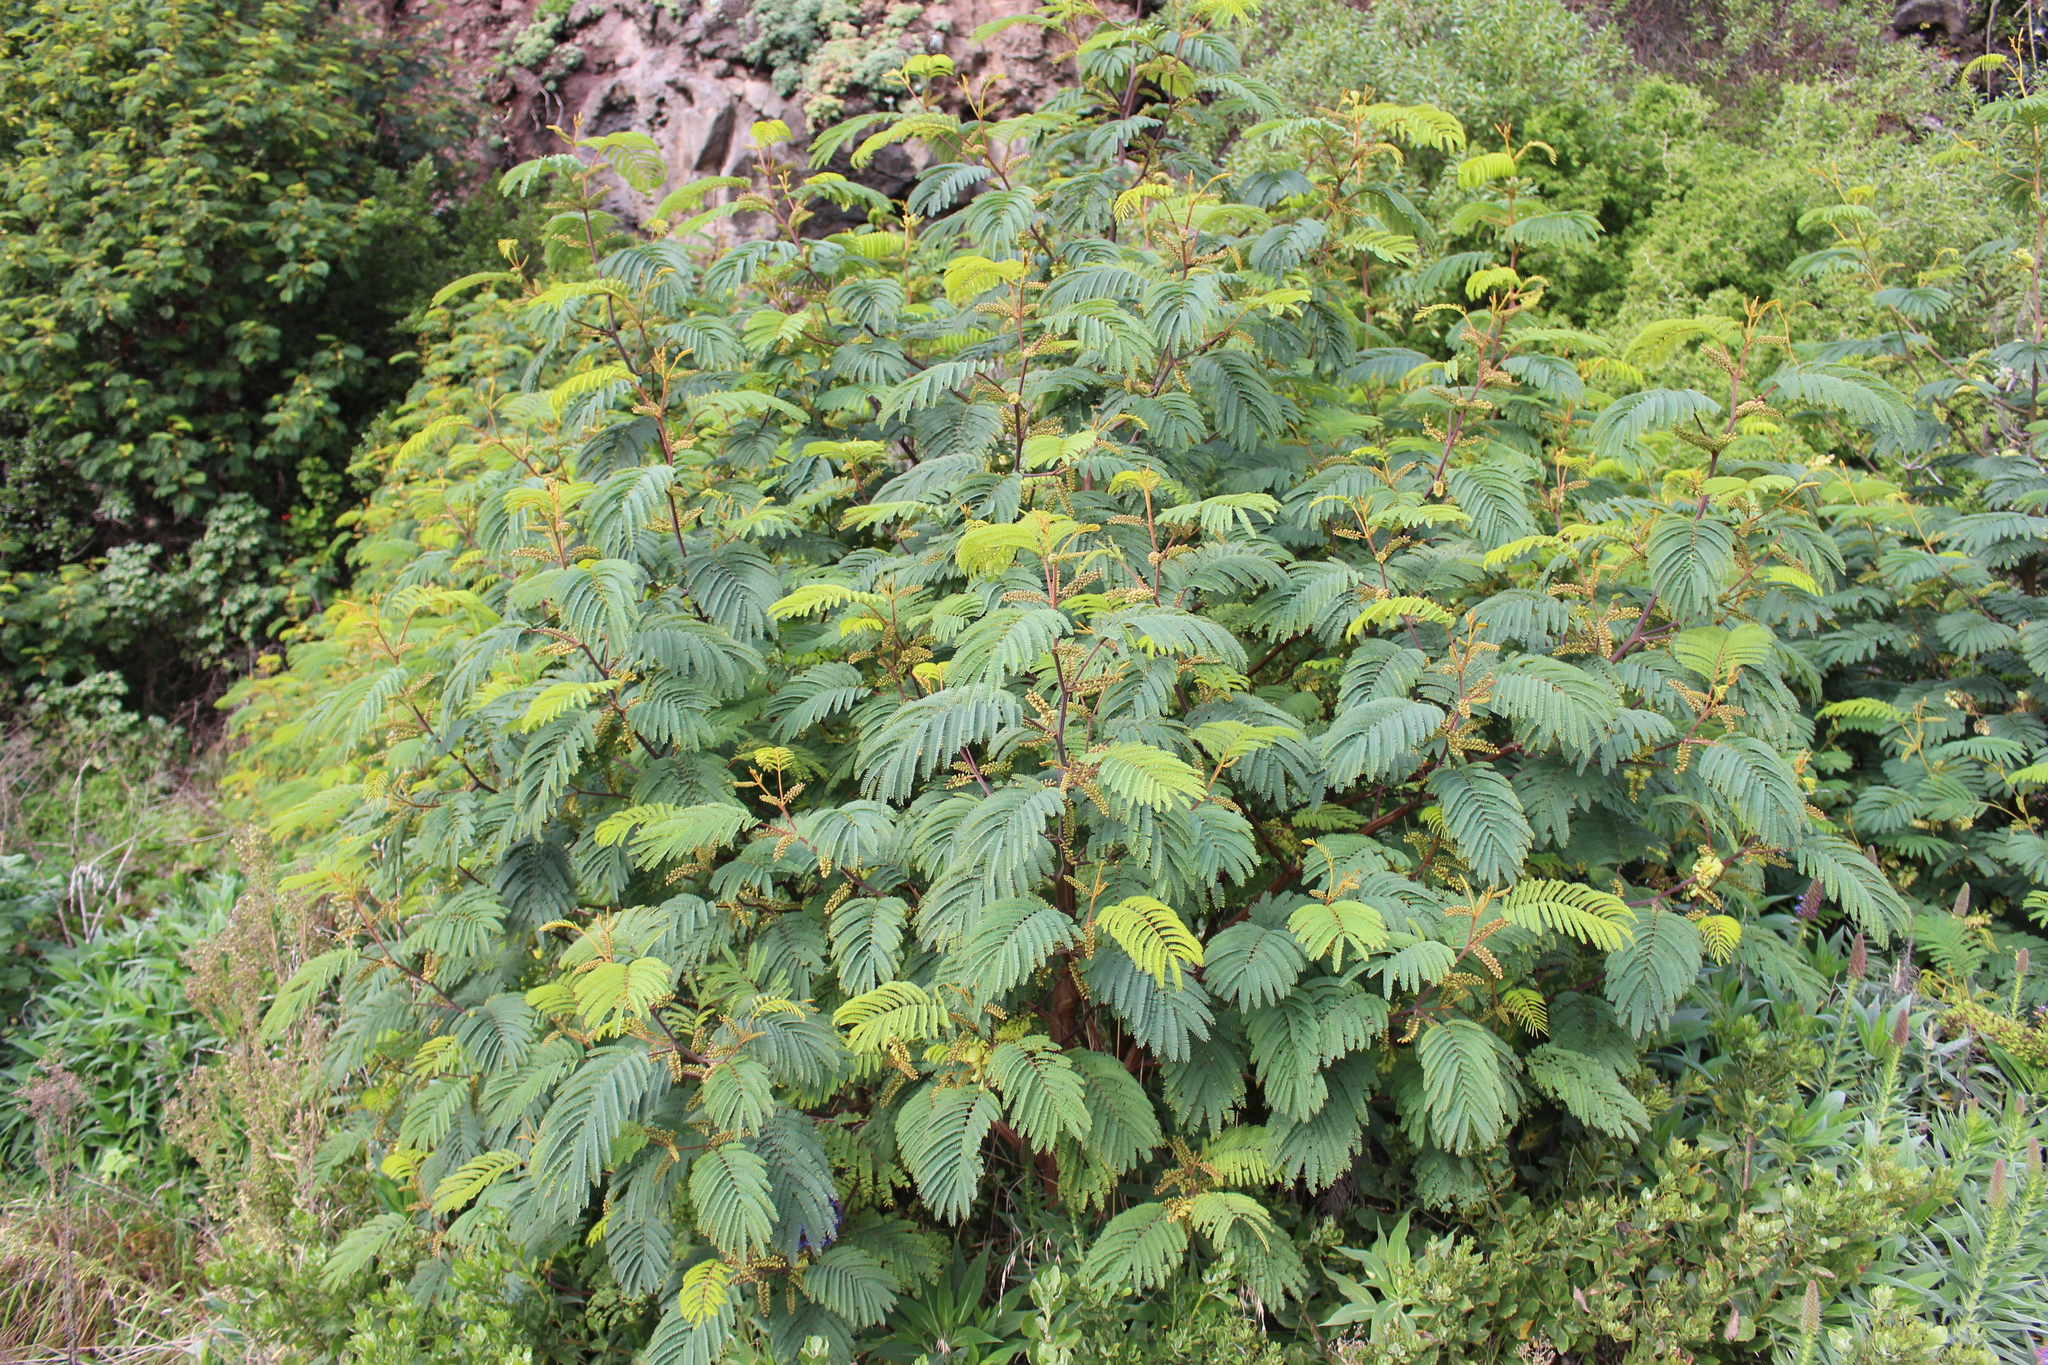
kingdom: Plantae
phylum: Tracheophyta
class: Magnoliopsida
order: Fabales
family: Fabaceae
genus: Paraserianthes
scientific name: Paraserianthes lophantha
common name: Plume albizia
